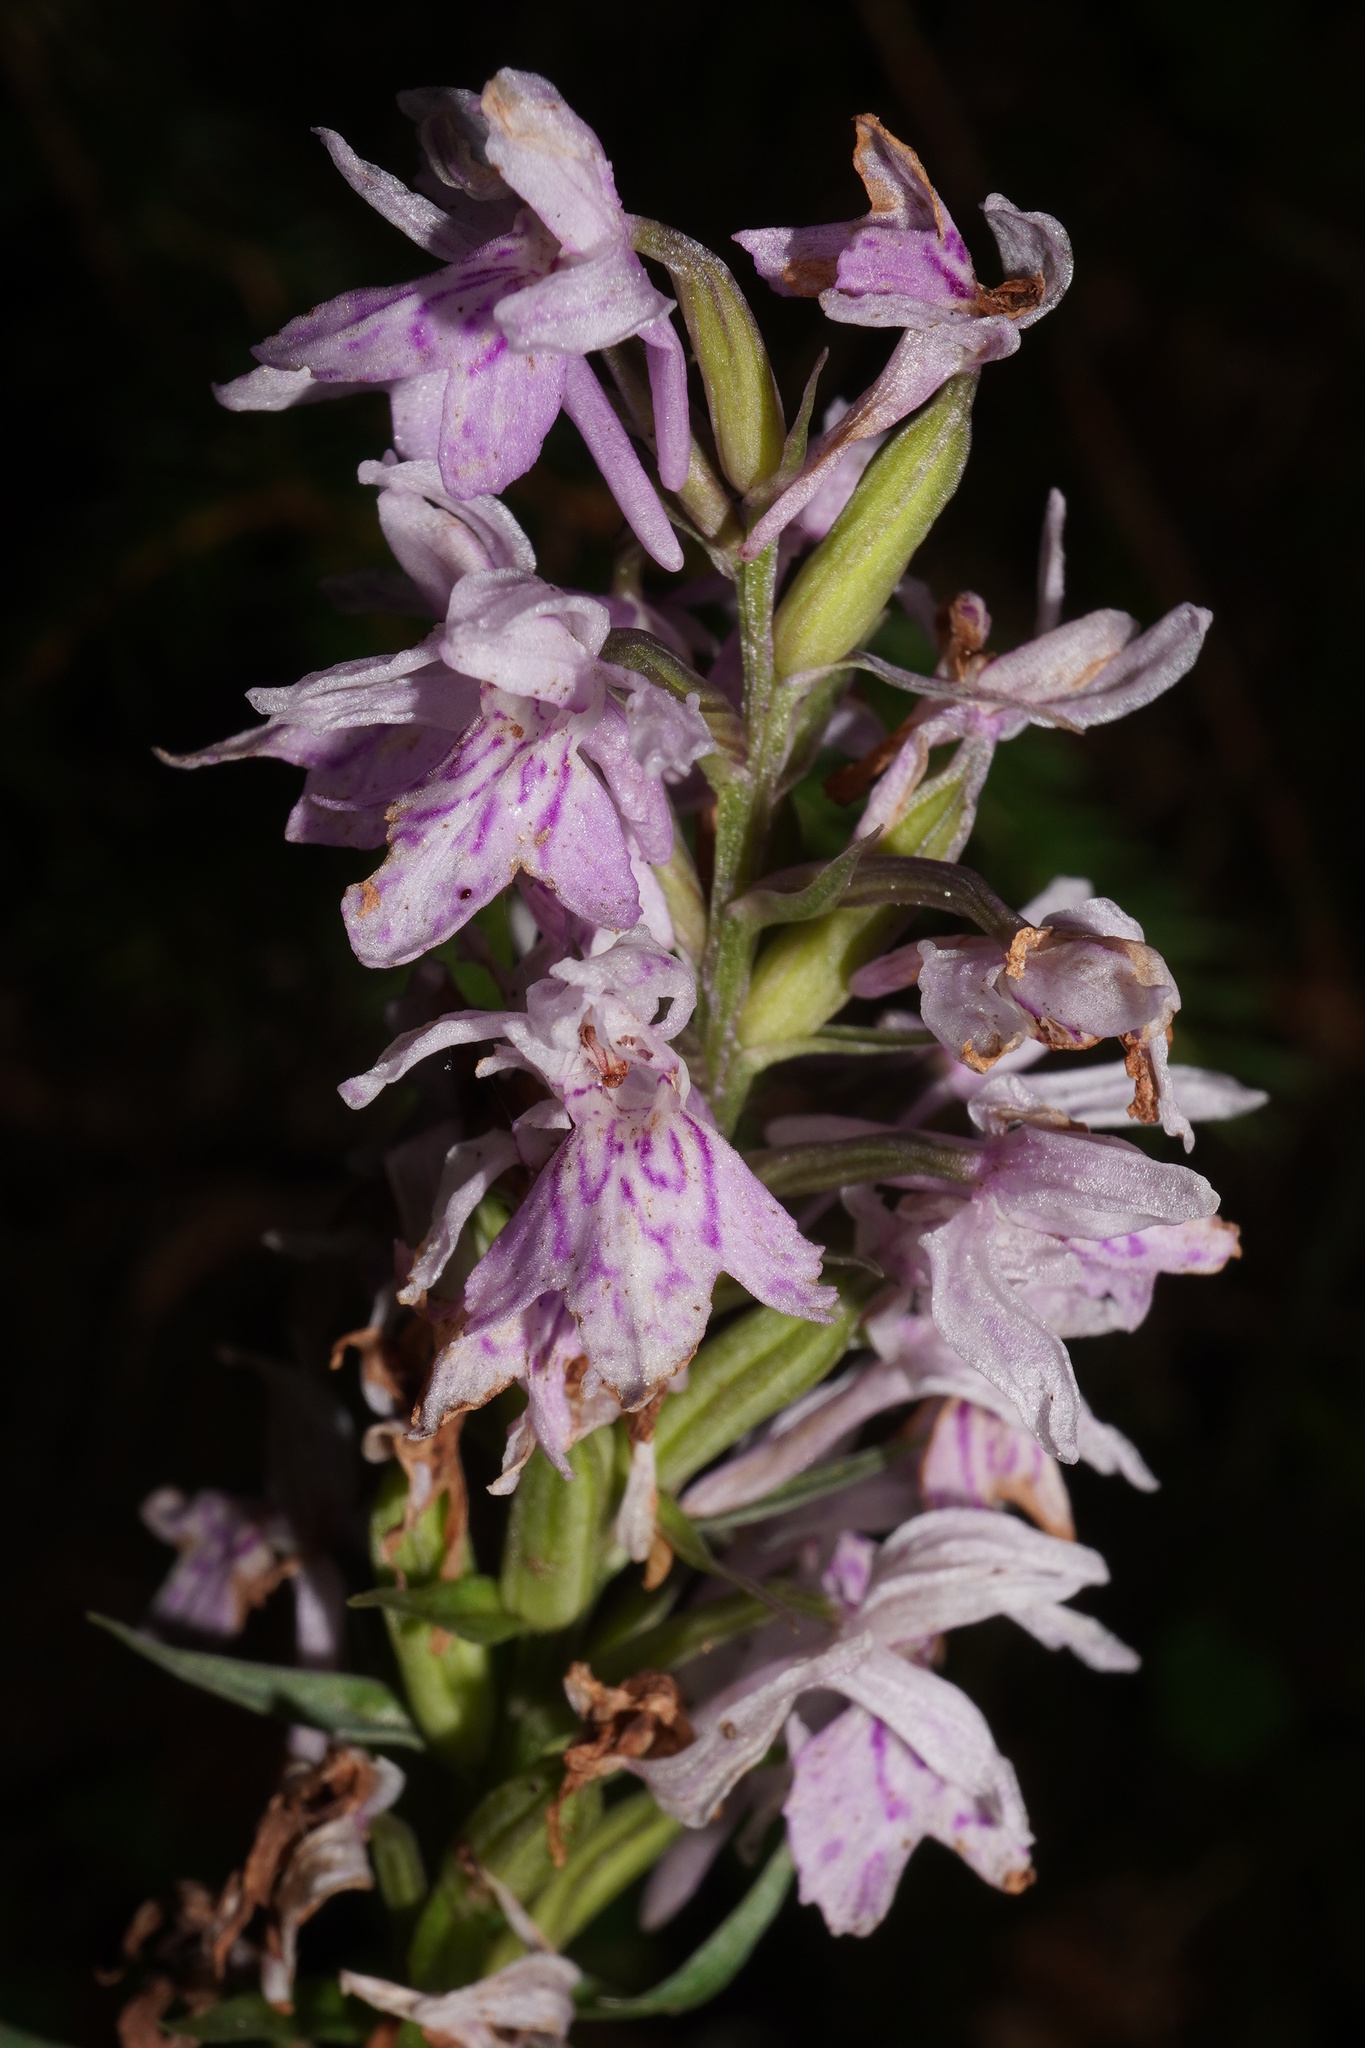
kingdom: Plantae
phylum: Tracheophyta
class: Liliopsida
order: Asparagales
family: Orchidaceae
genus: Dactylorhiza
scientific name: Dactylorhiza maculata
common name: Heath spotted-orchid
